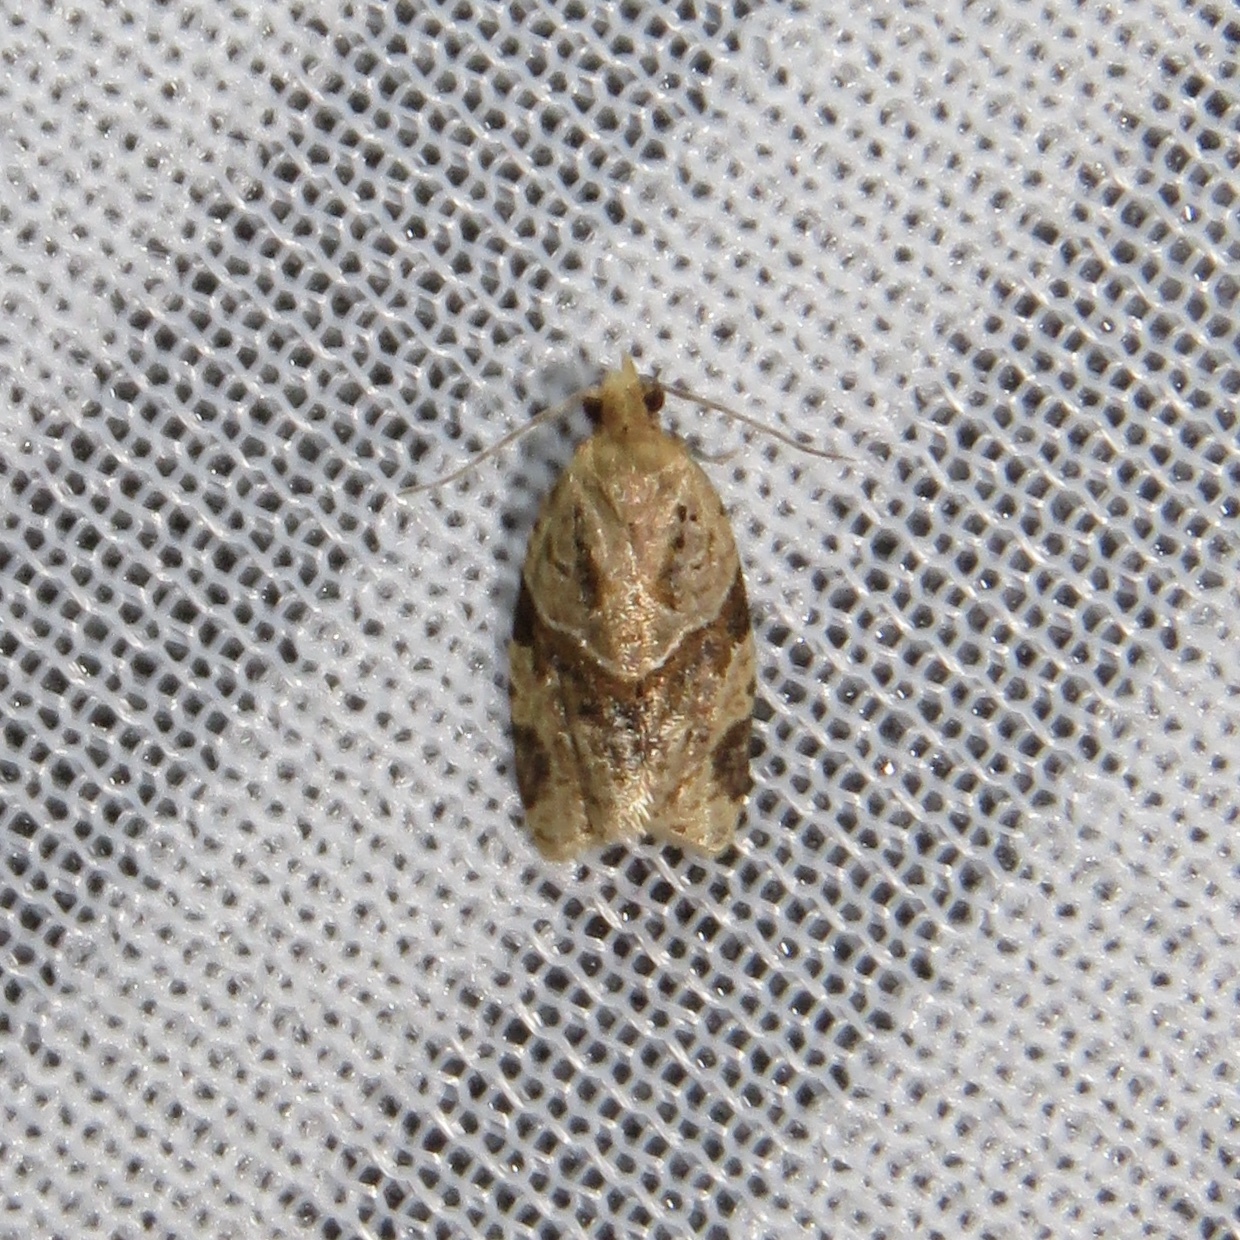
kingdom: Animalia
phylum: Arthropoda
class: Insecta
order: Lepidoptera
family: Tortricidae
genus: Clepsis
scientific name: Clepsis peritana
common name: Garden tortrix
